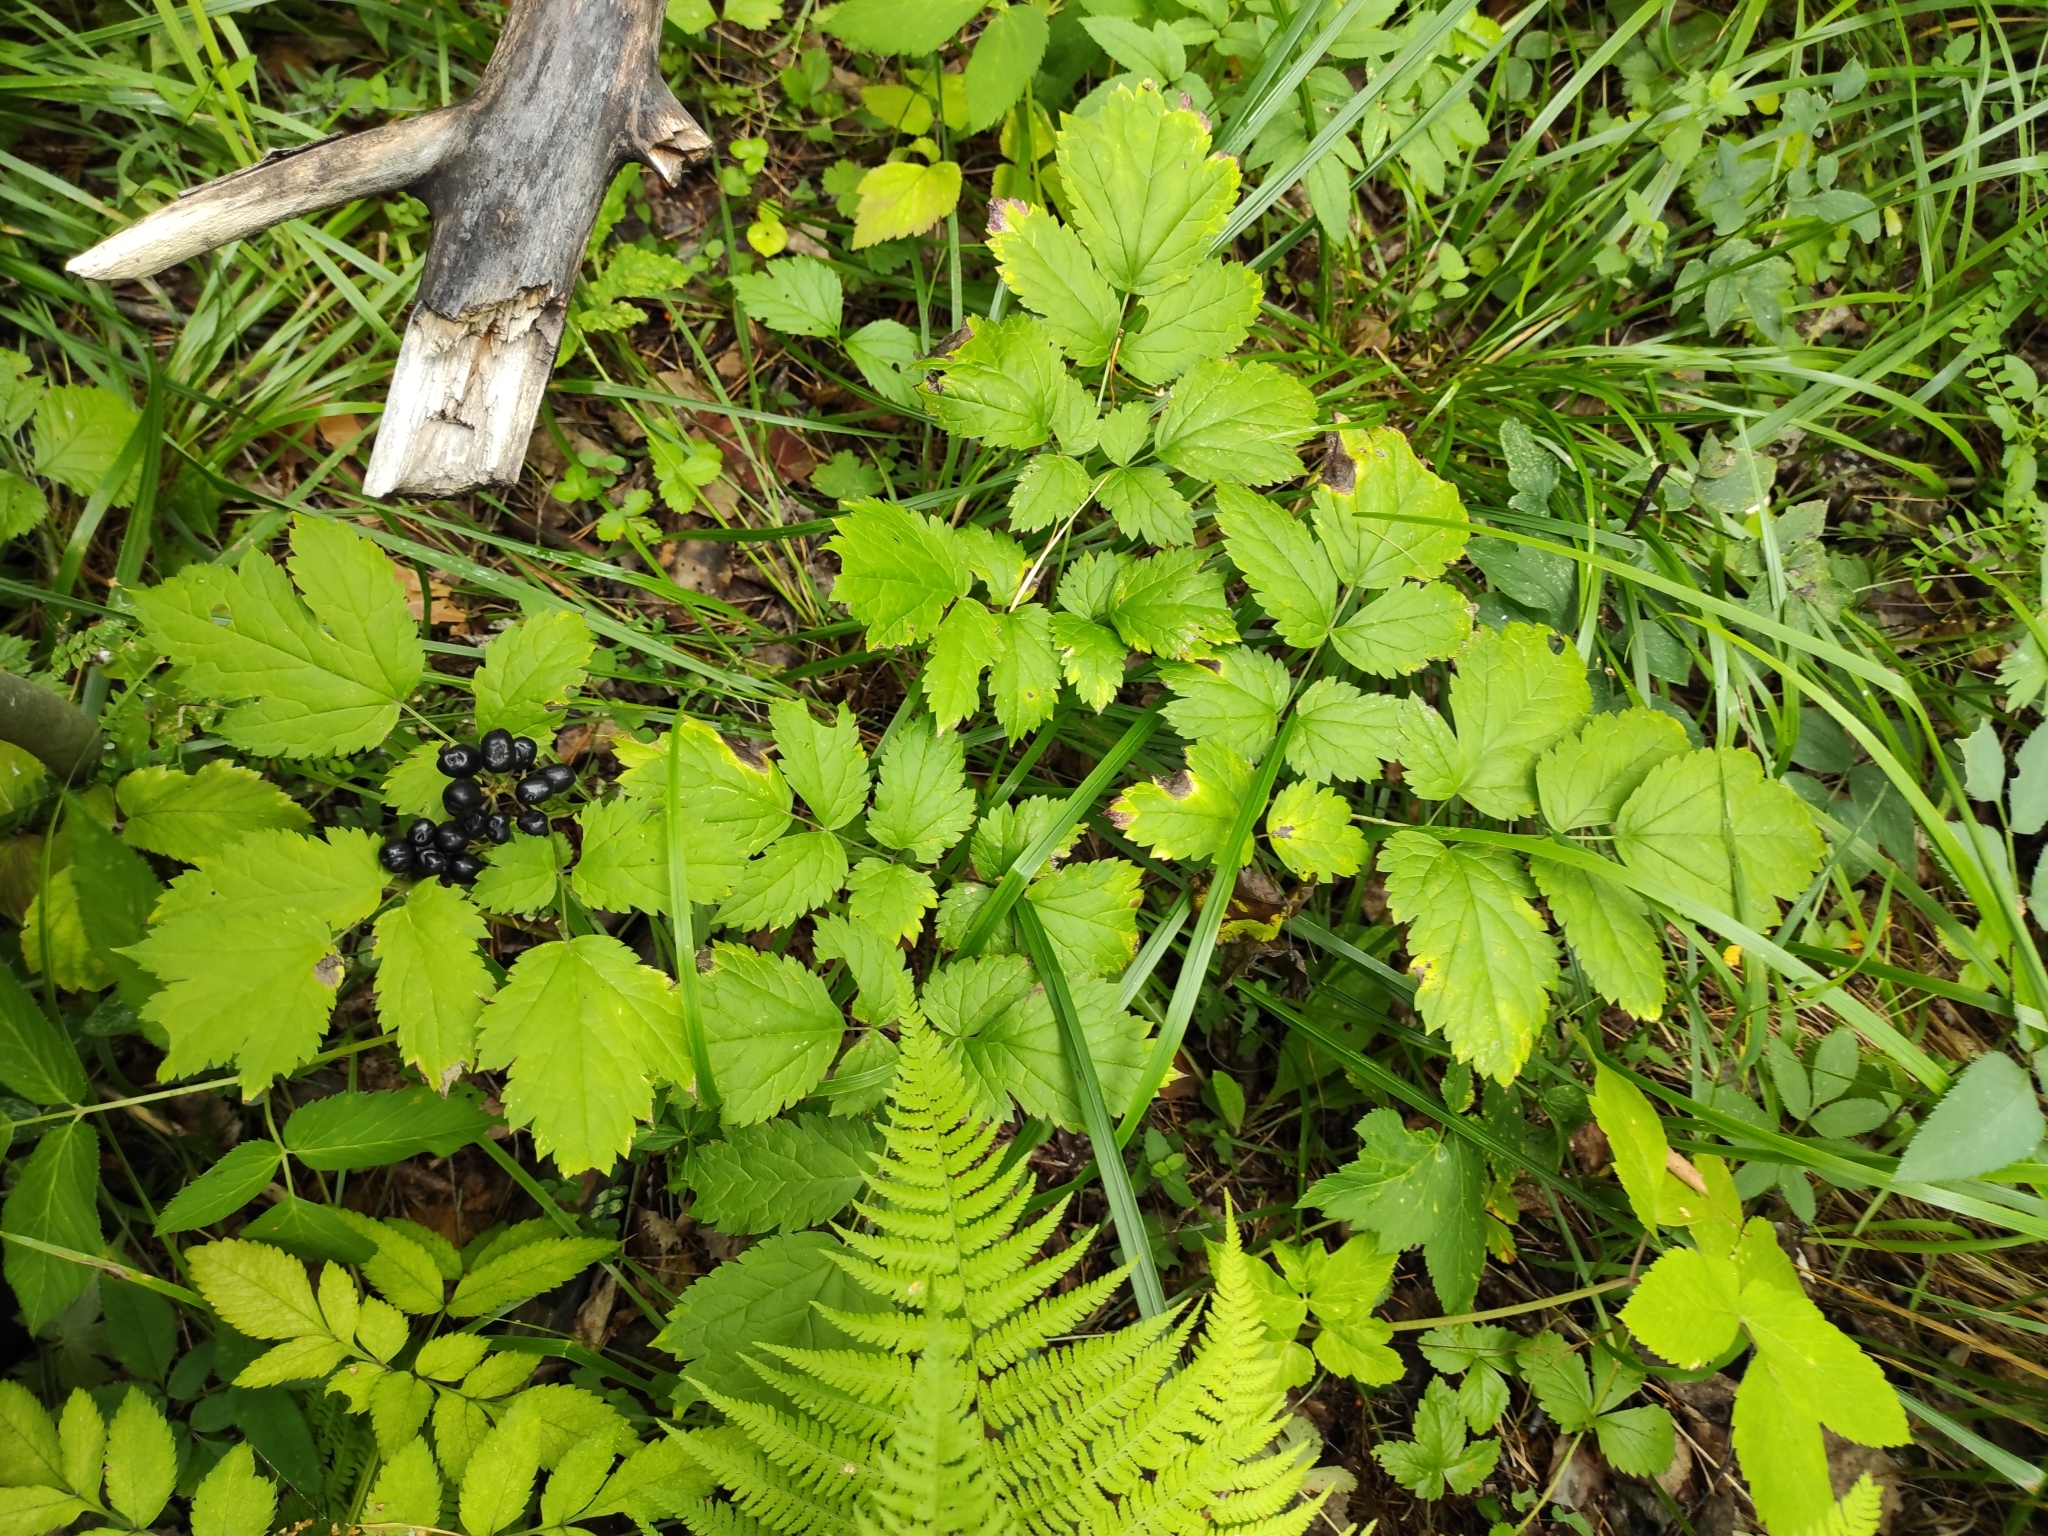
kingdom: Plantae
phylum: Tracheophyta
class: Magnoliopsida
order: Ranunculales
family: Ranunculaceae
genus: Actaea
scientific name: Actaea spicata
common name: Baneberry
